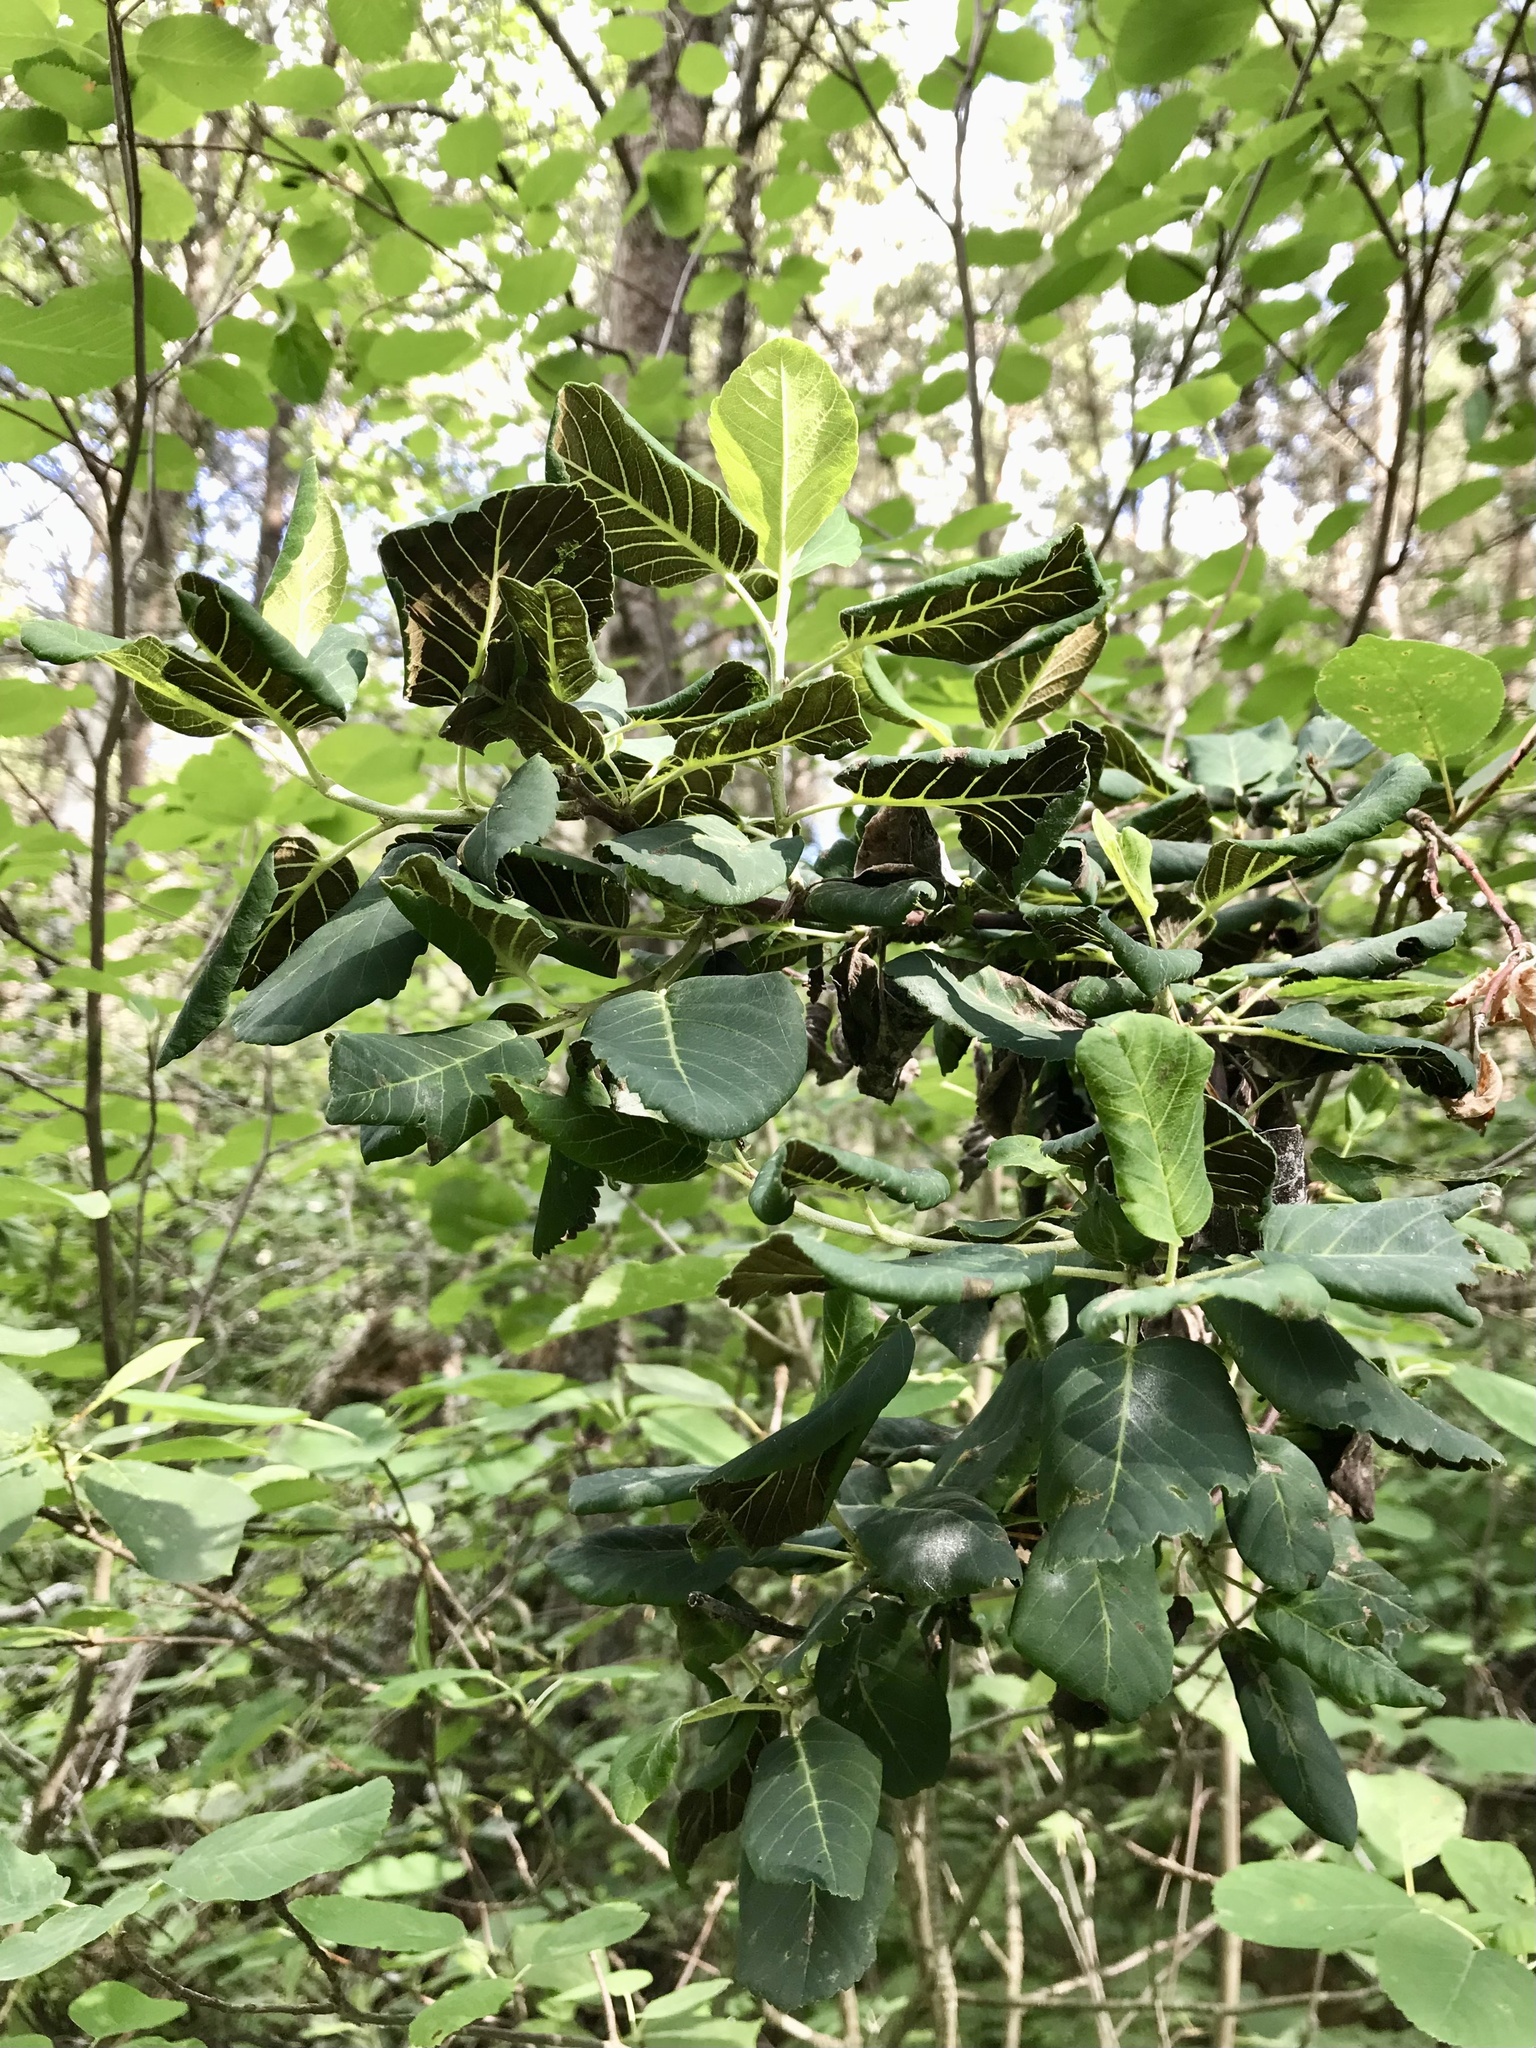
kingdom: Fungi
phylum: Ascomycota
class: Dothideomycetes
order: Venturiales
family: Venturiaceae
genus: Apiosporina
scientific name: Apiosporina collinsii
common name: Black leaf
